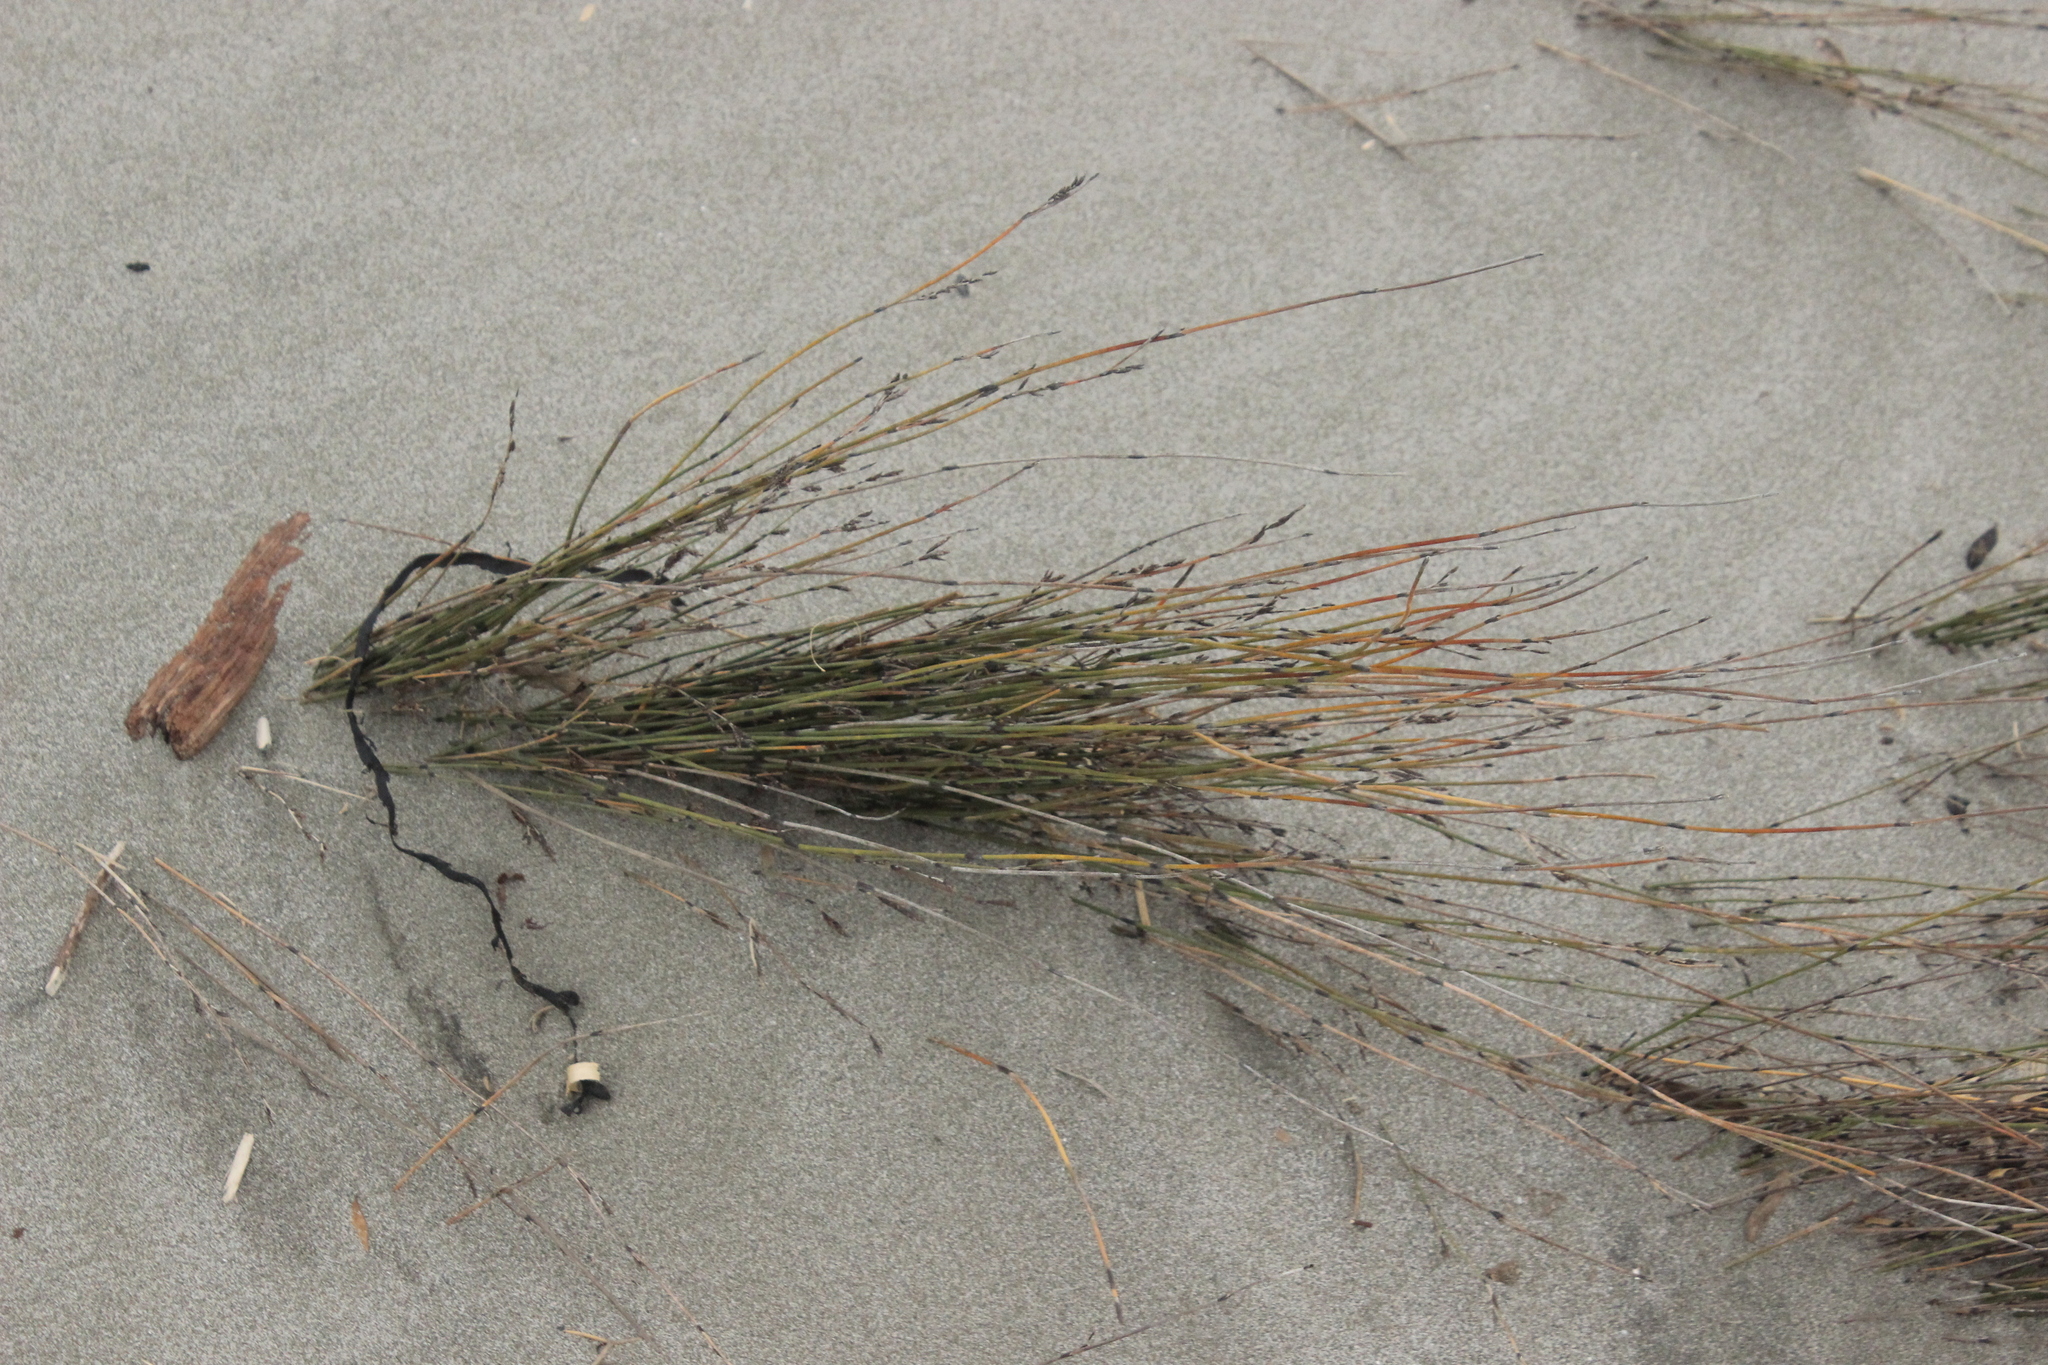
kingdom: Plantae
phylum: Tracheophyta
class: Liliopsida
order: Poales
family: Restionaceae
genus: Apodasmia
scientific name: Apodasmia similis
